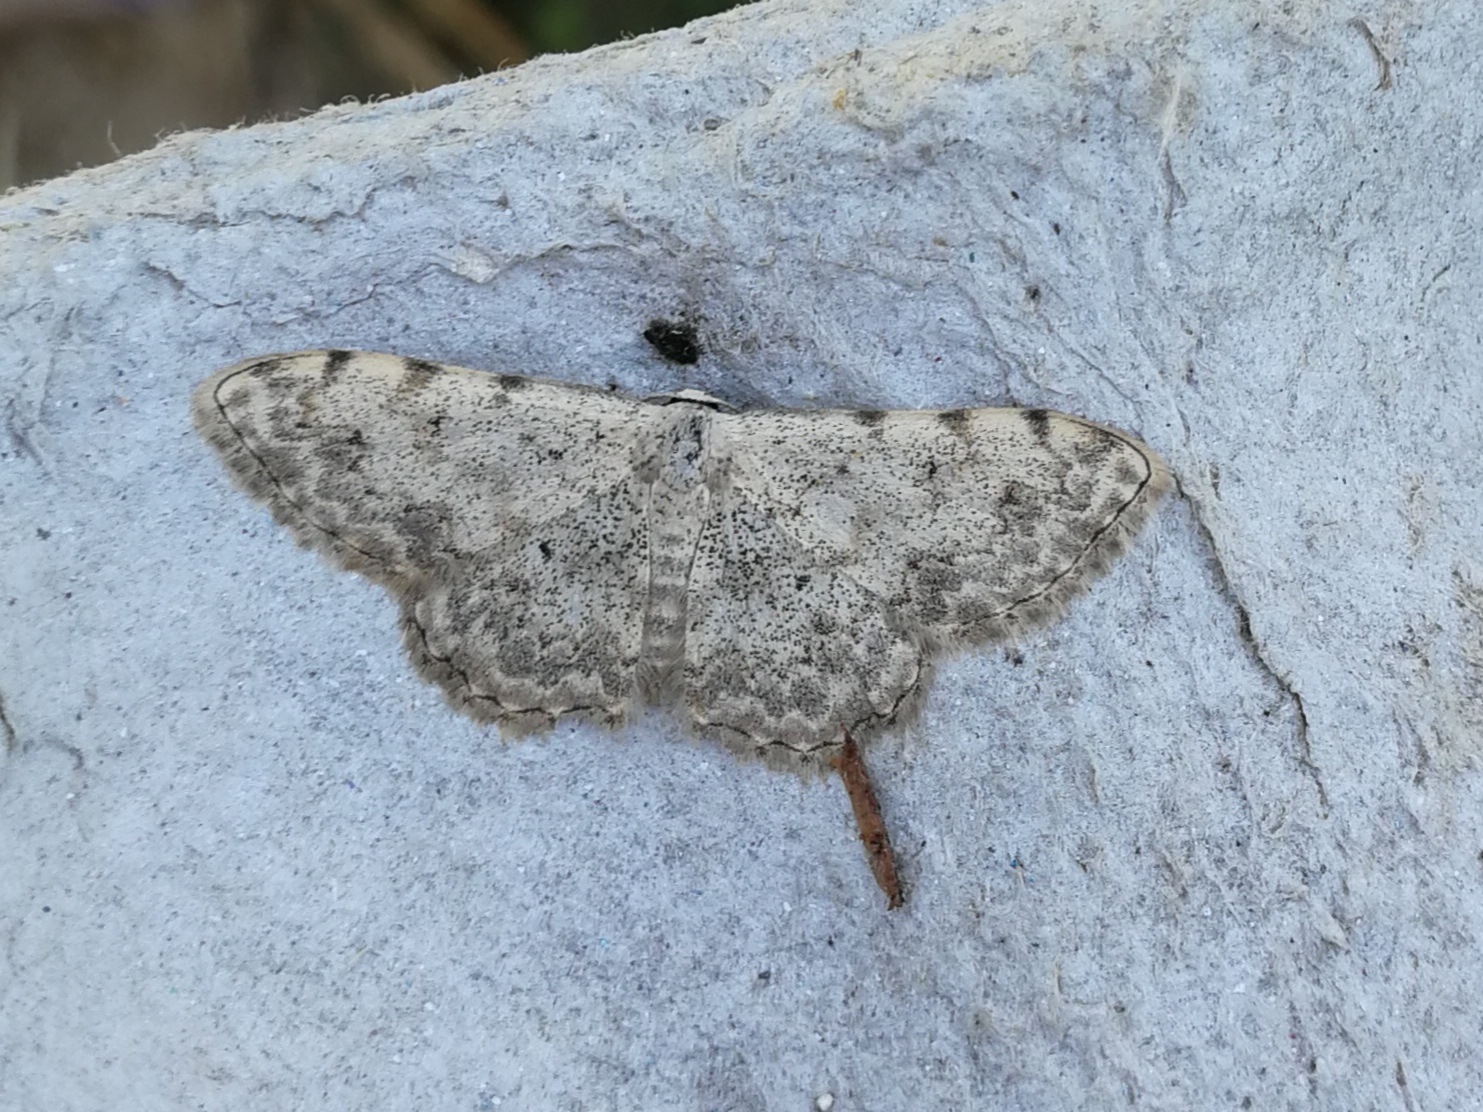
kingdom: Animalia
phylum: Arthropoda
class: Insecta
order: Lepidoptera
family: Geometridae
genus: Scopula
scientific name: Scopula submutata
